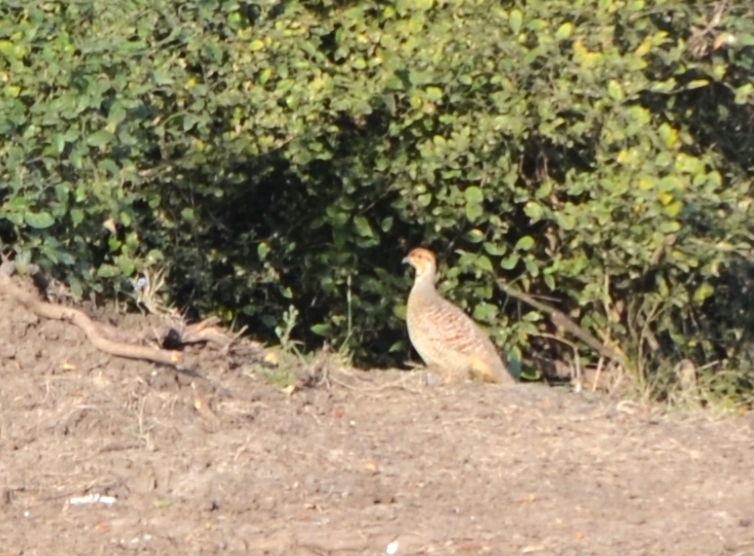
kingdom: Animalia
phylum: Chordata
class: Aves
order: Galliformes
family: Phasianidae
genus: Ortygornis
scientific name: Ortygornis pondicerianus
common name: Grey francolin
